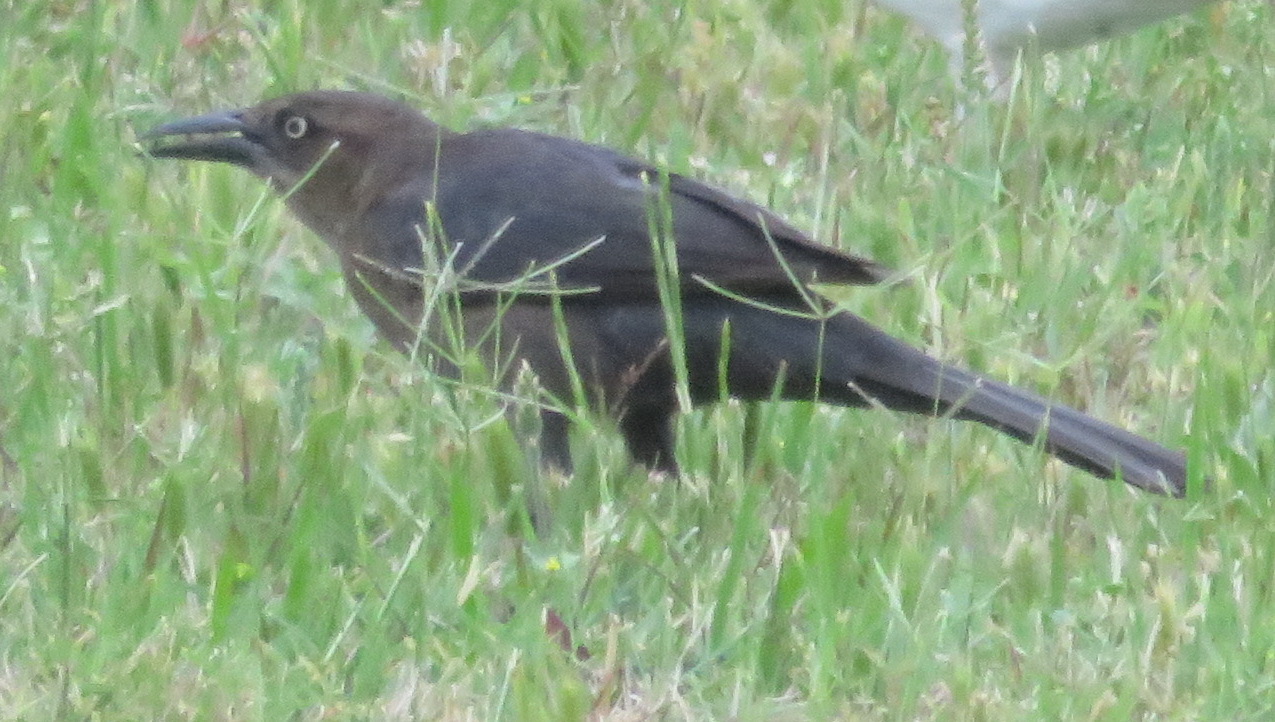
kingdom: Animalia
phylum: Chordata
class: Aves
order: Passeriformes
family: Icteridae
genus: Quiscalus
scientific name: Quiscalus mexicanus
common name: Great-tailed grackle
